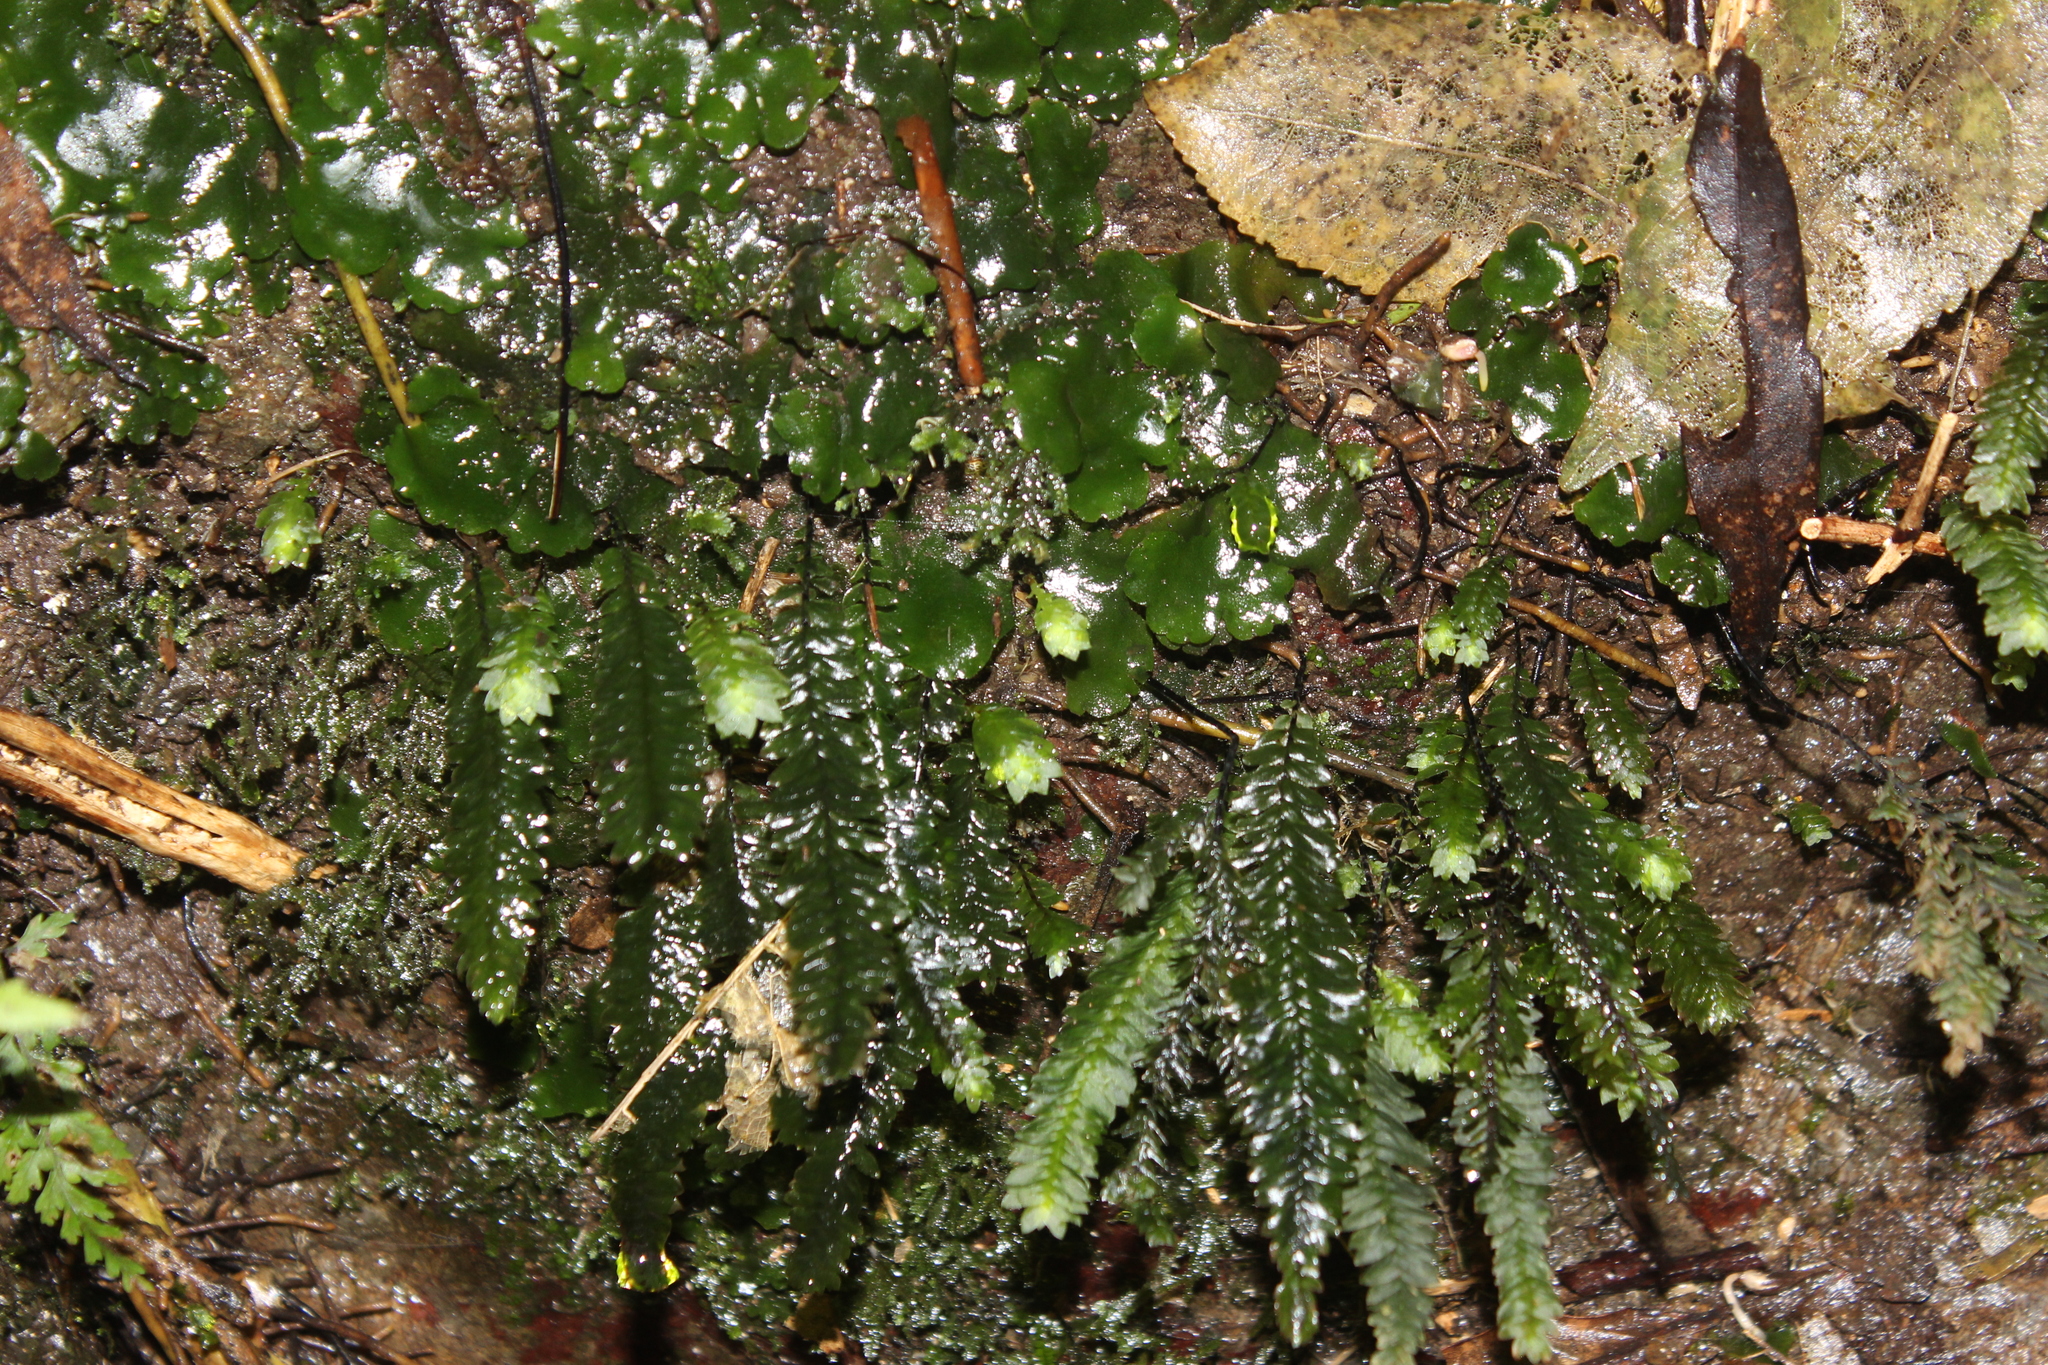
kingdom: Plantae
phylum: Bryophyta
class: Bryopsida
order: Hypopterygiales
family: Hypopterygiaceae
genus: Cyathophorum
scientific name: Cyathophorum bulbosum
